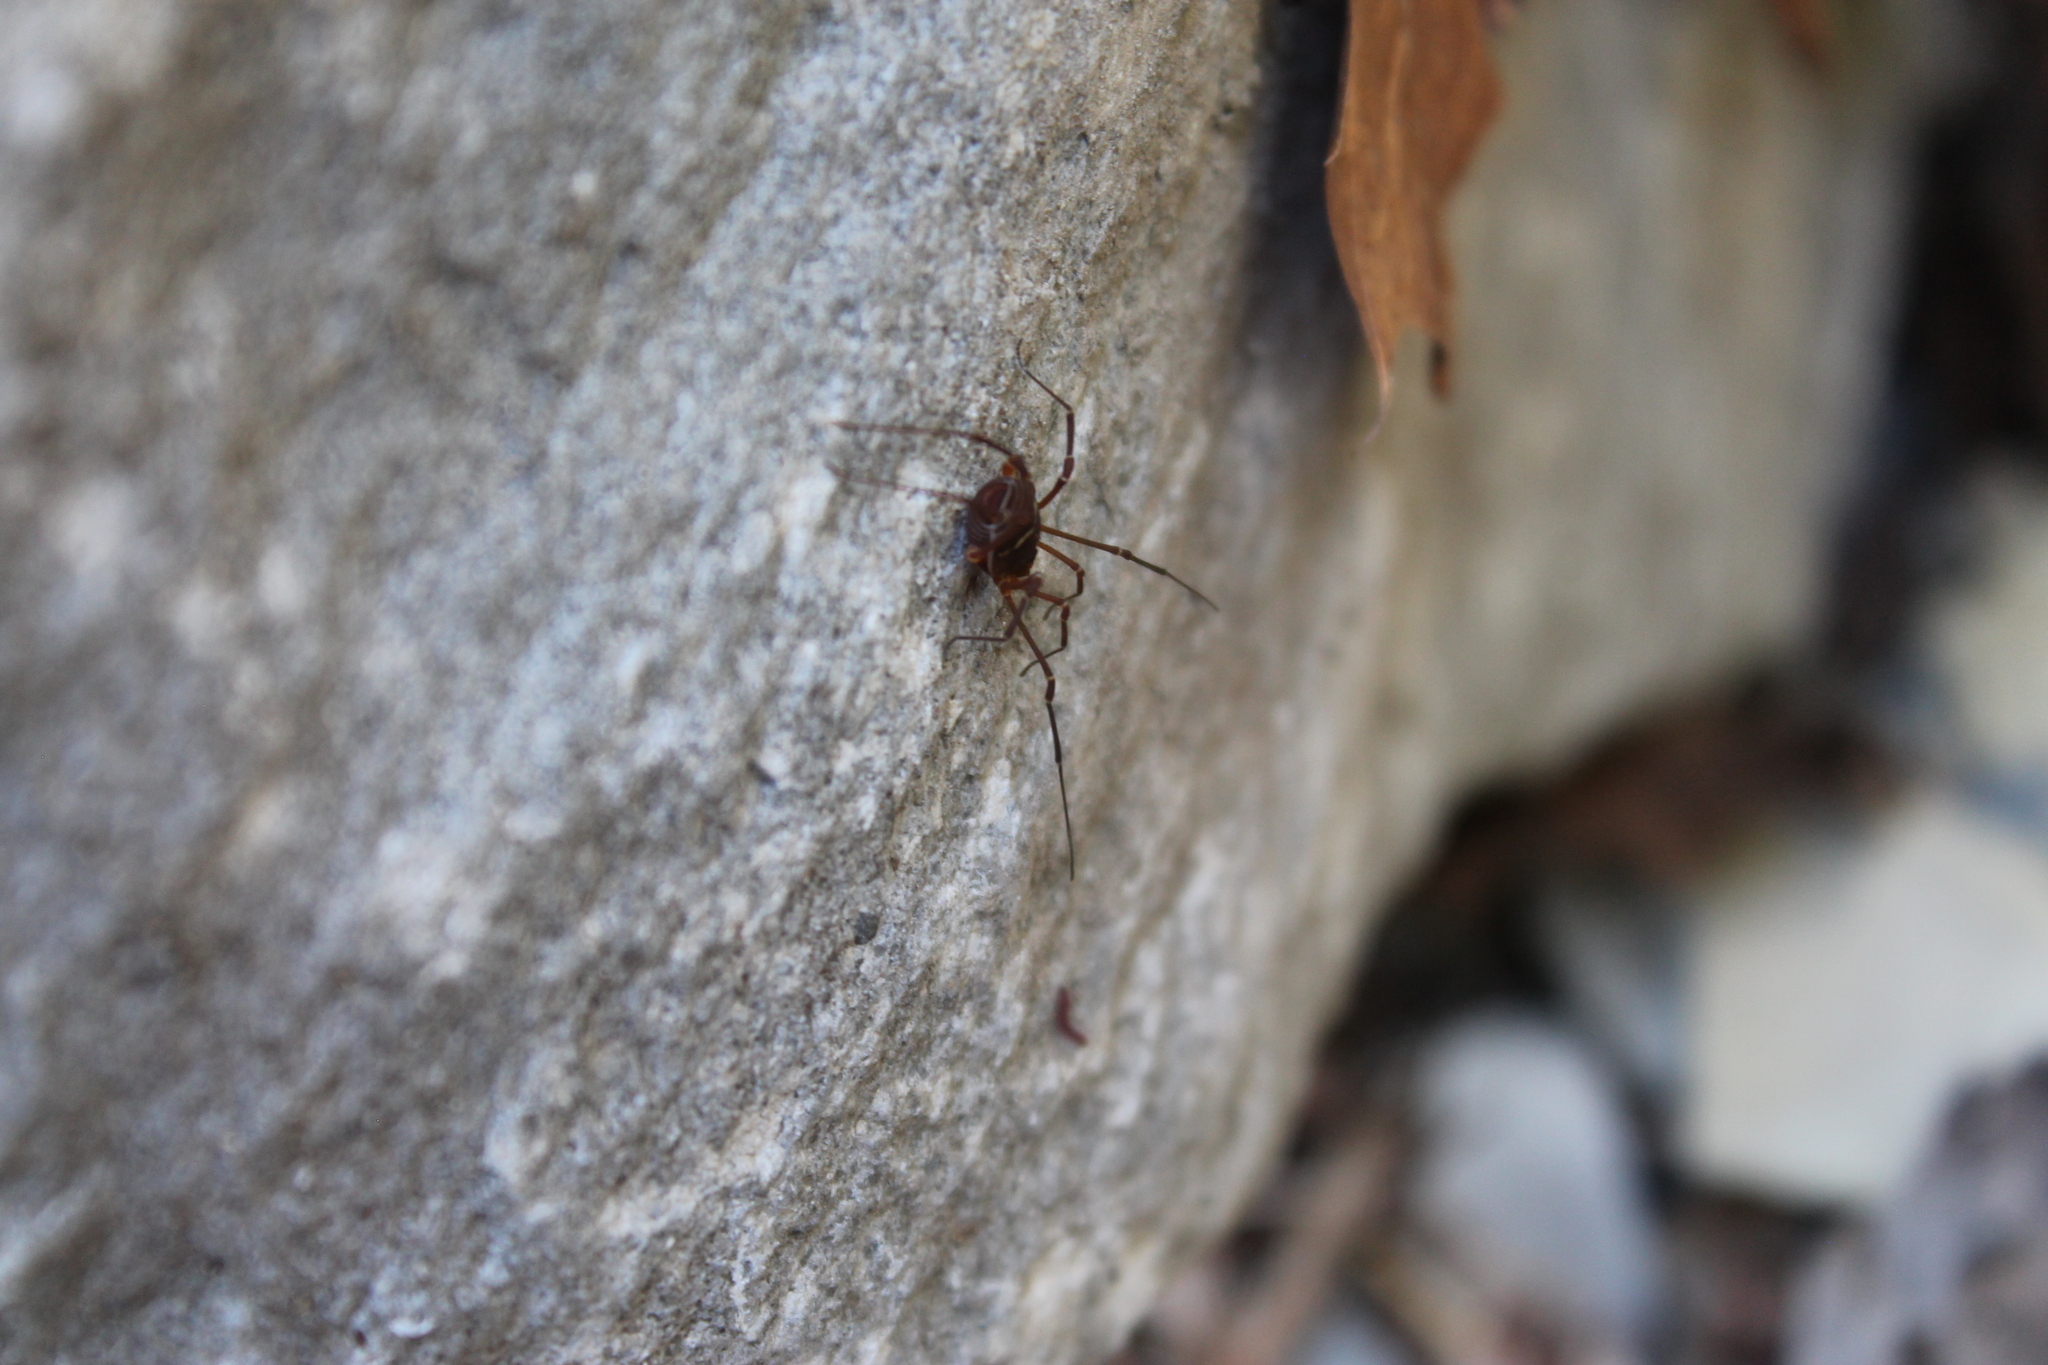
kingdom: Animalia
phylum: Arthropoda
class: Arachnida
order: Opiliones
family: Cosmetidae
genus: Libitioides
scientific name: Libitioides sayi
